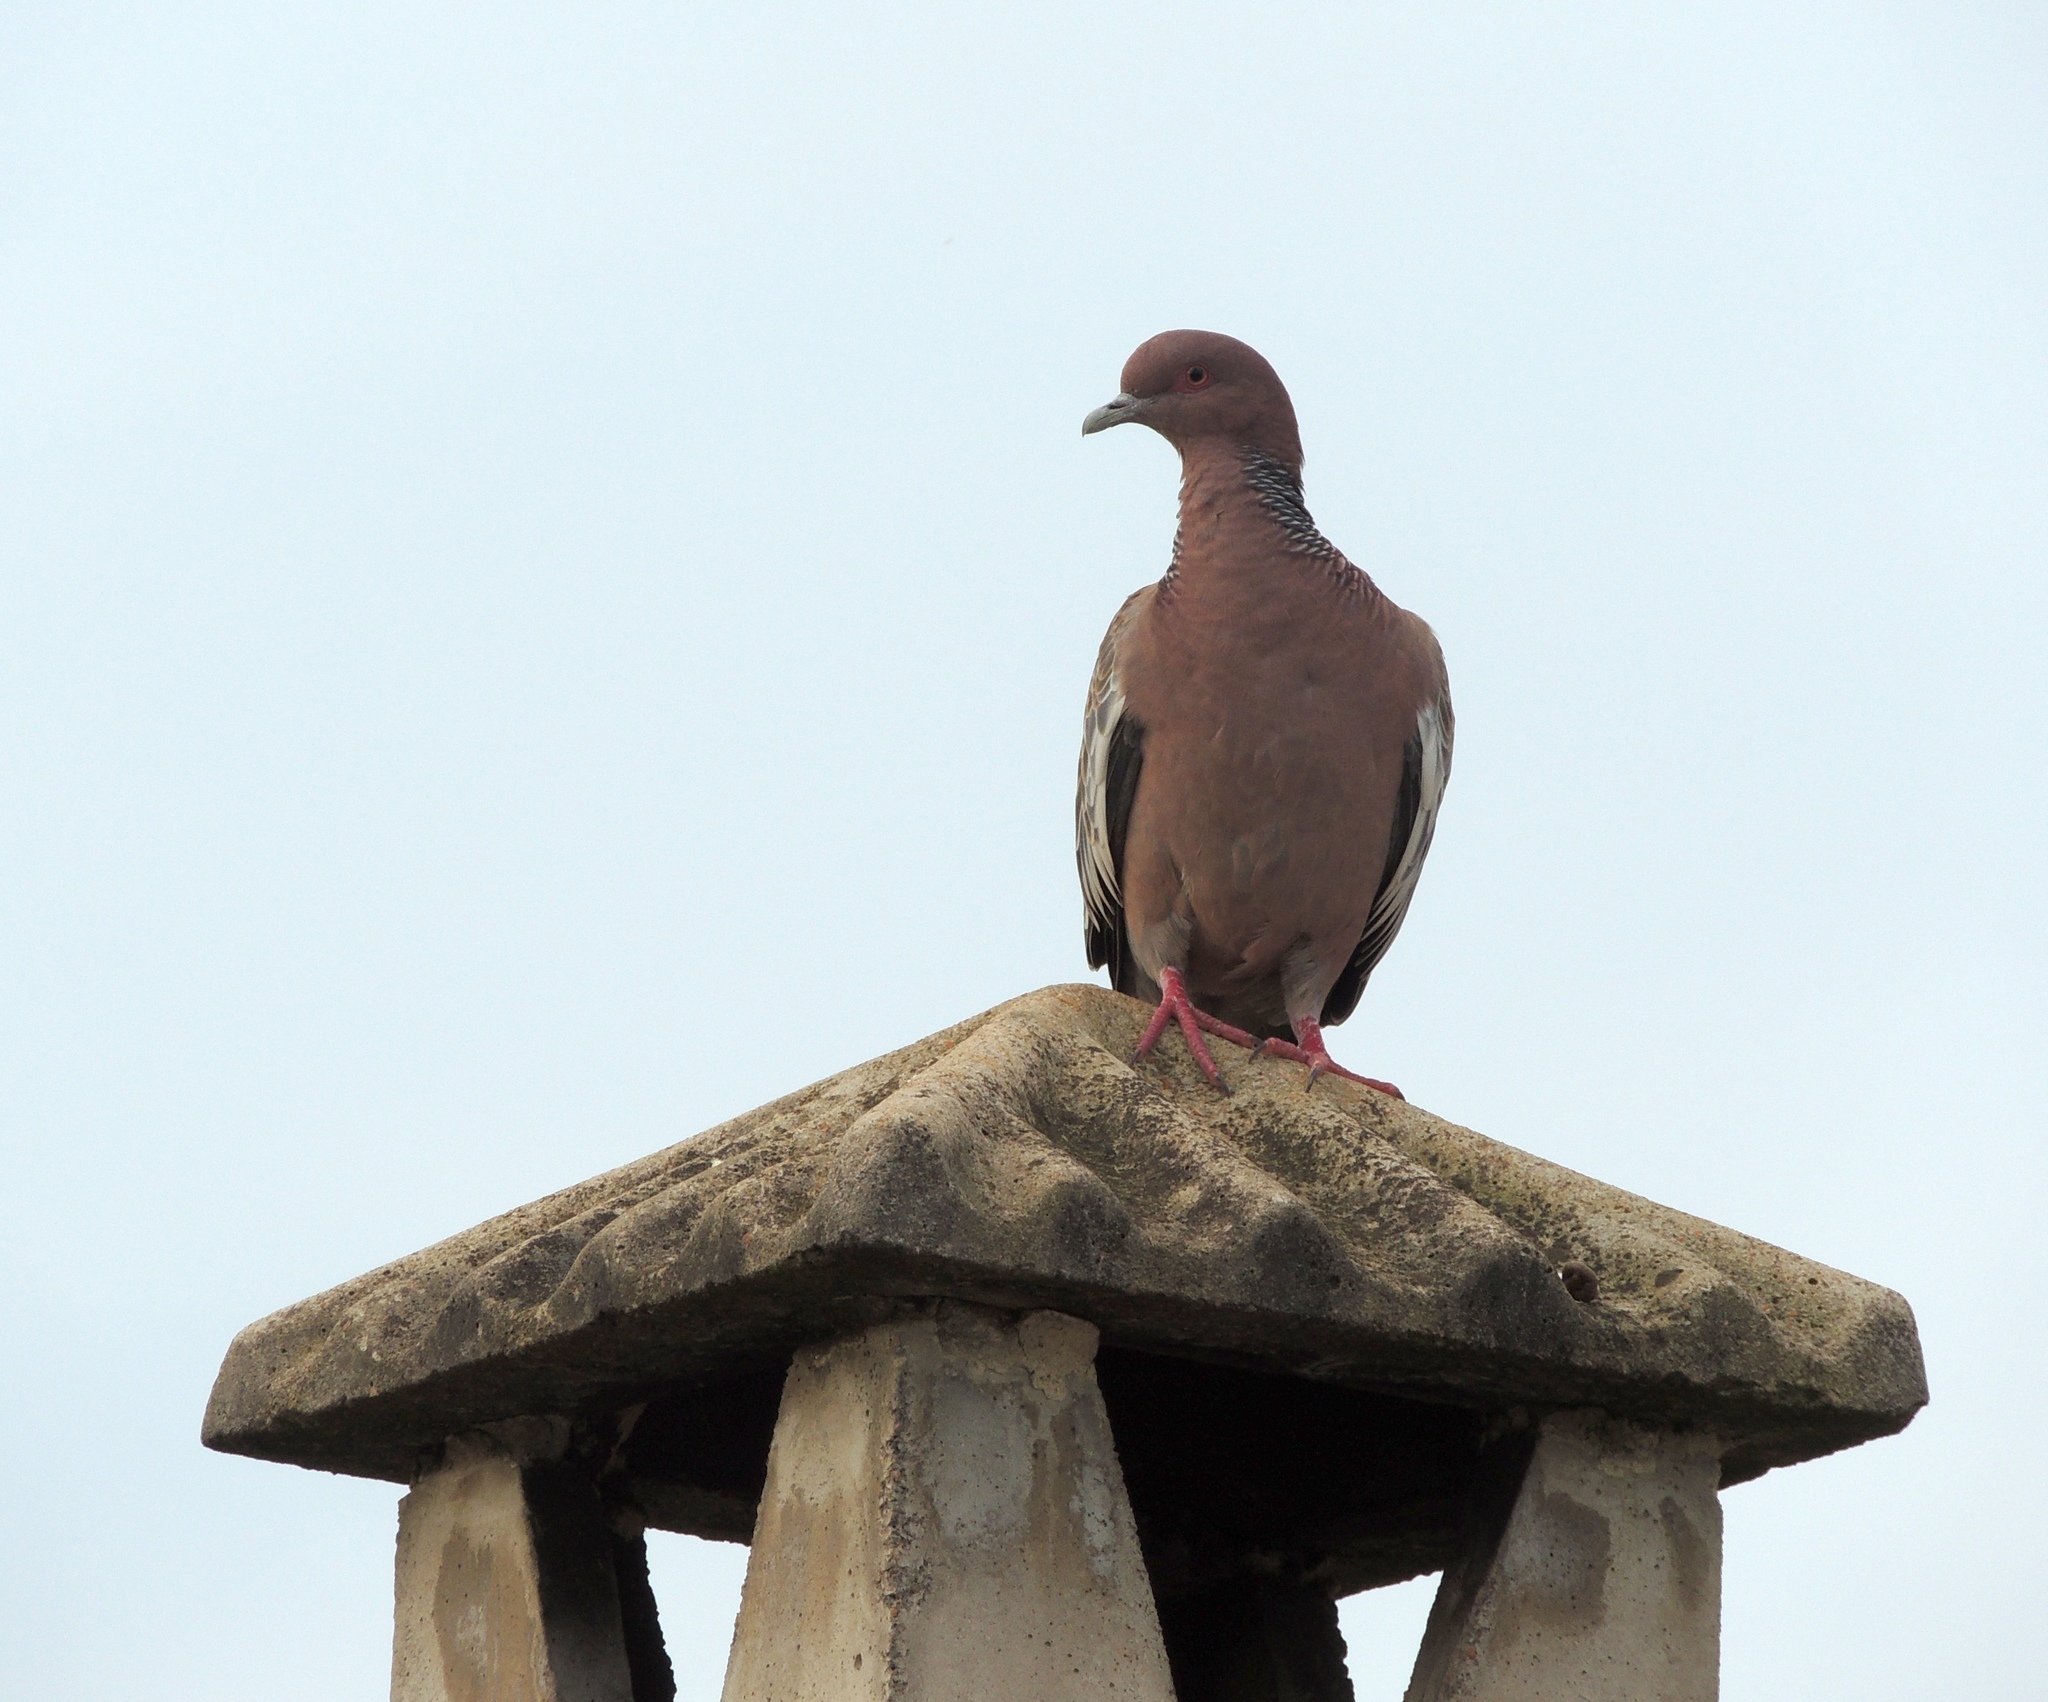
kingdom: Animalia
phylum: Chordata
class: Aves
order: Columbiformes
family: Columbidae
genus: Patagioenas
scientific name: Patagioenas picazuro
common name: Picazuro pigeon
